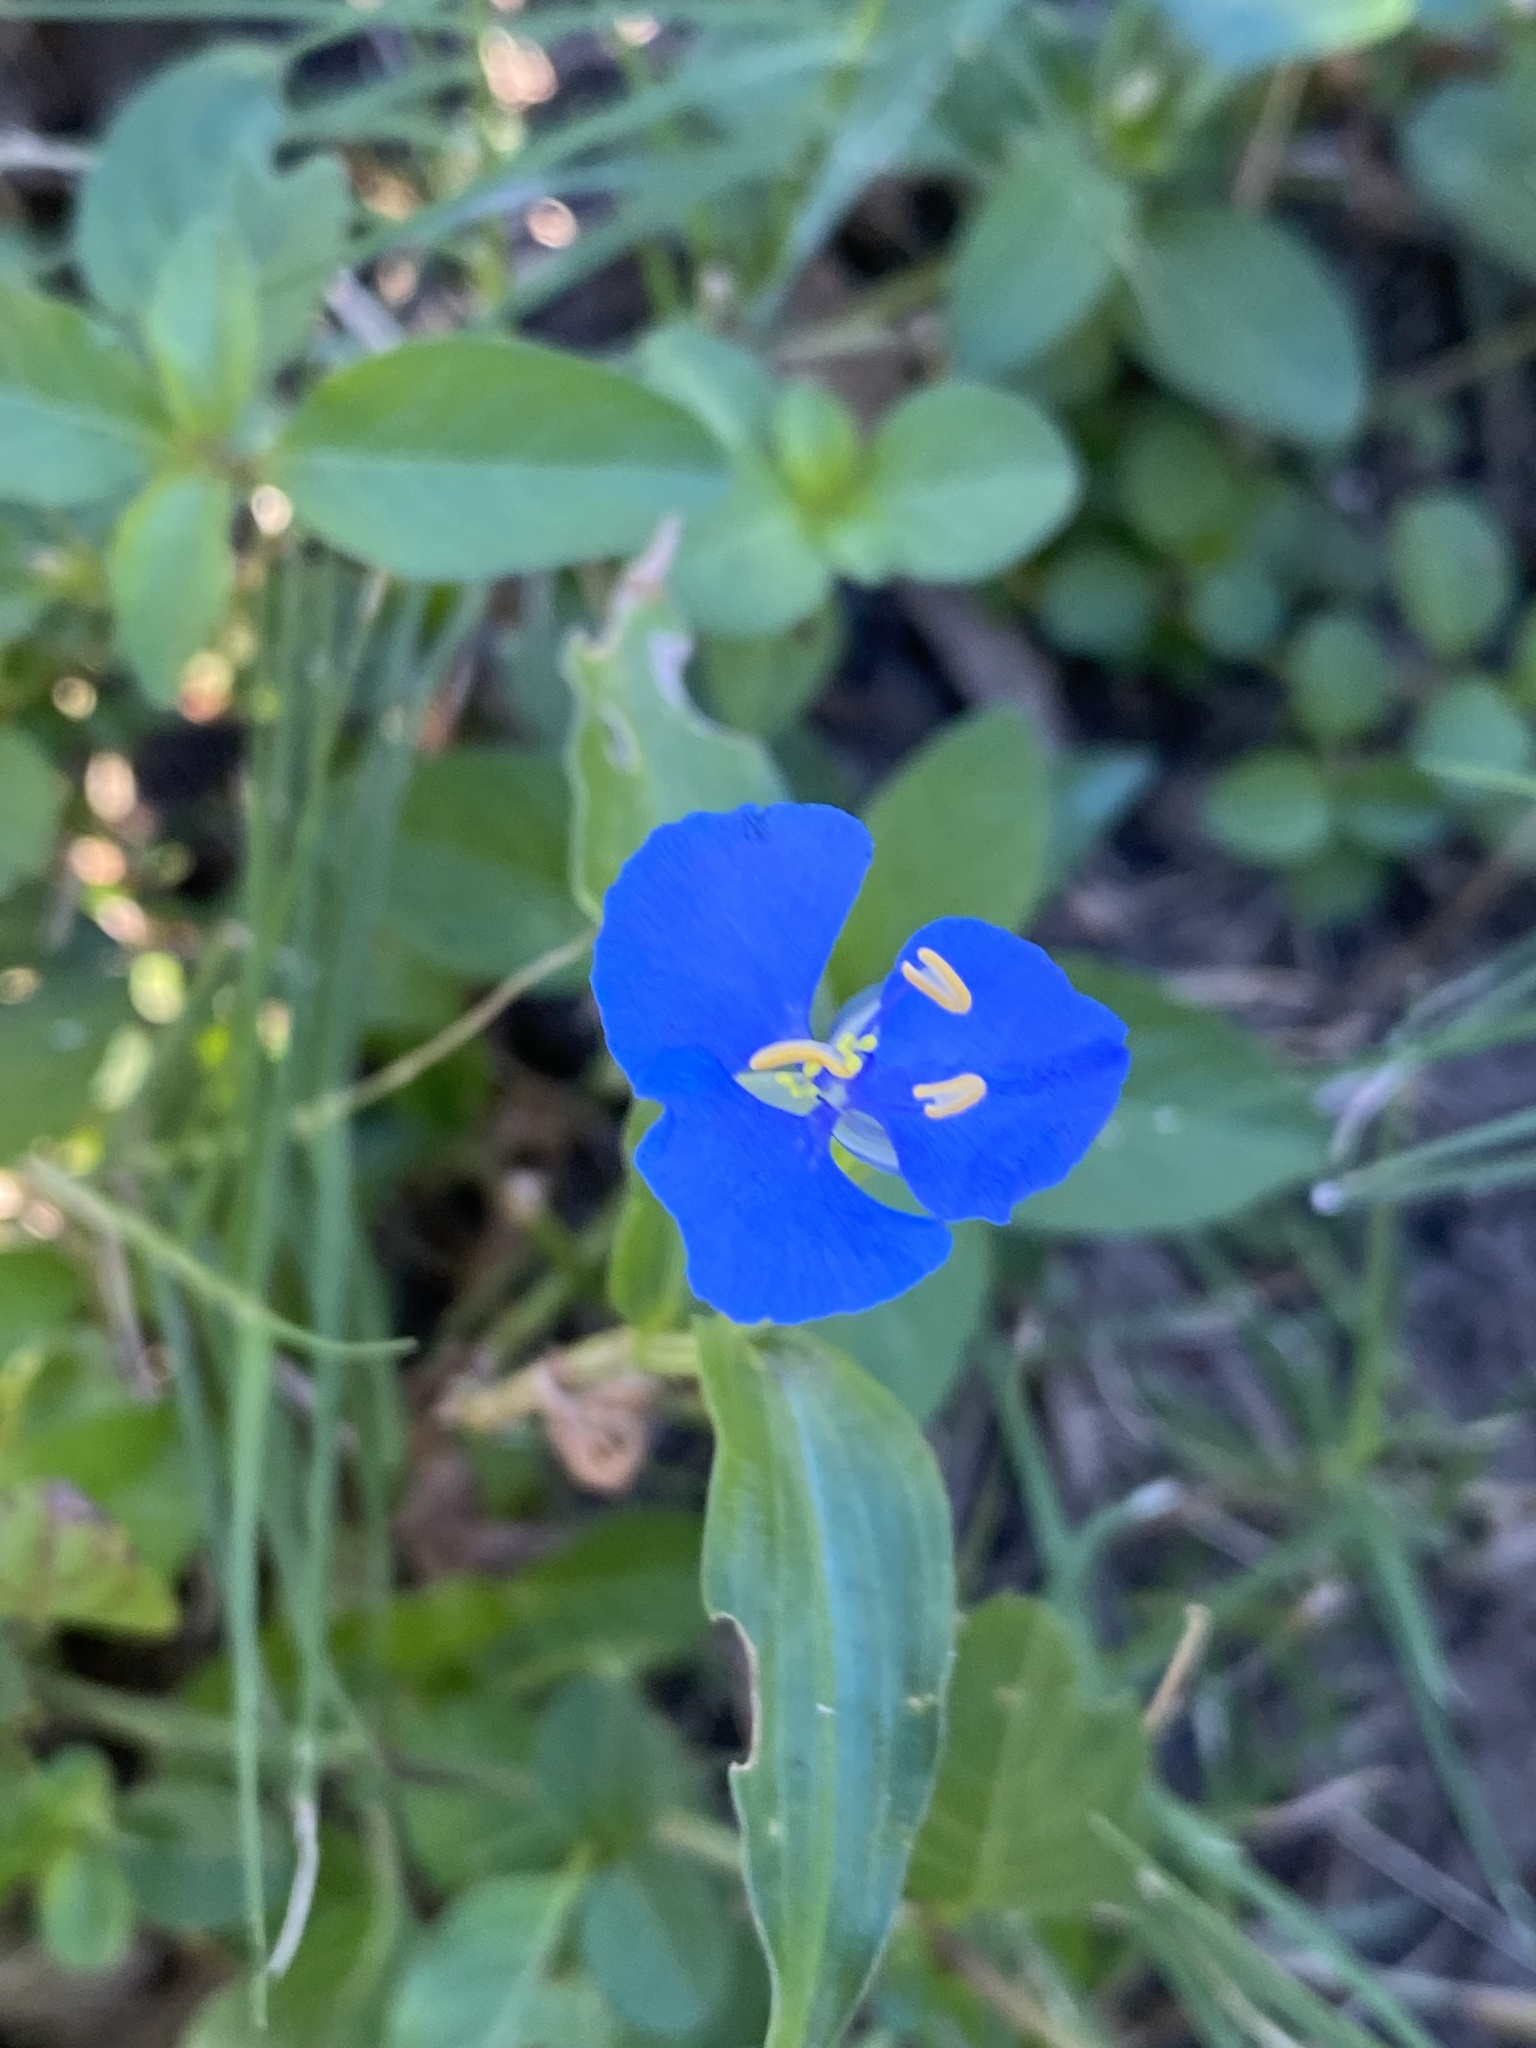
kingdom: Plantae
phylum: Tracheophyta
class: Liliopsida
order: Commelinales
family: Commelinaceae
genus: Commelina
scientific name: Commelina cyanea
